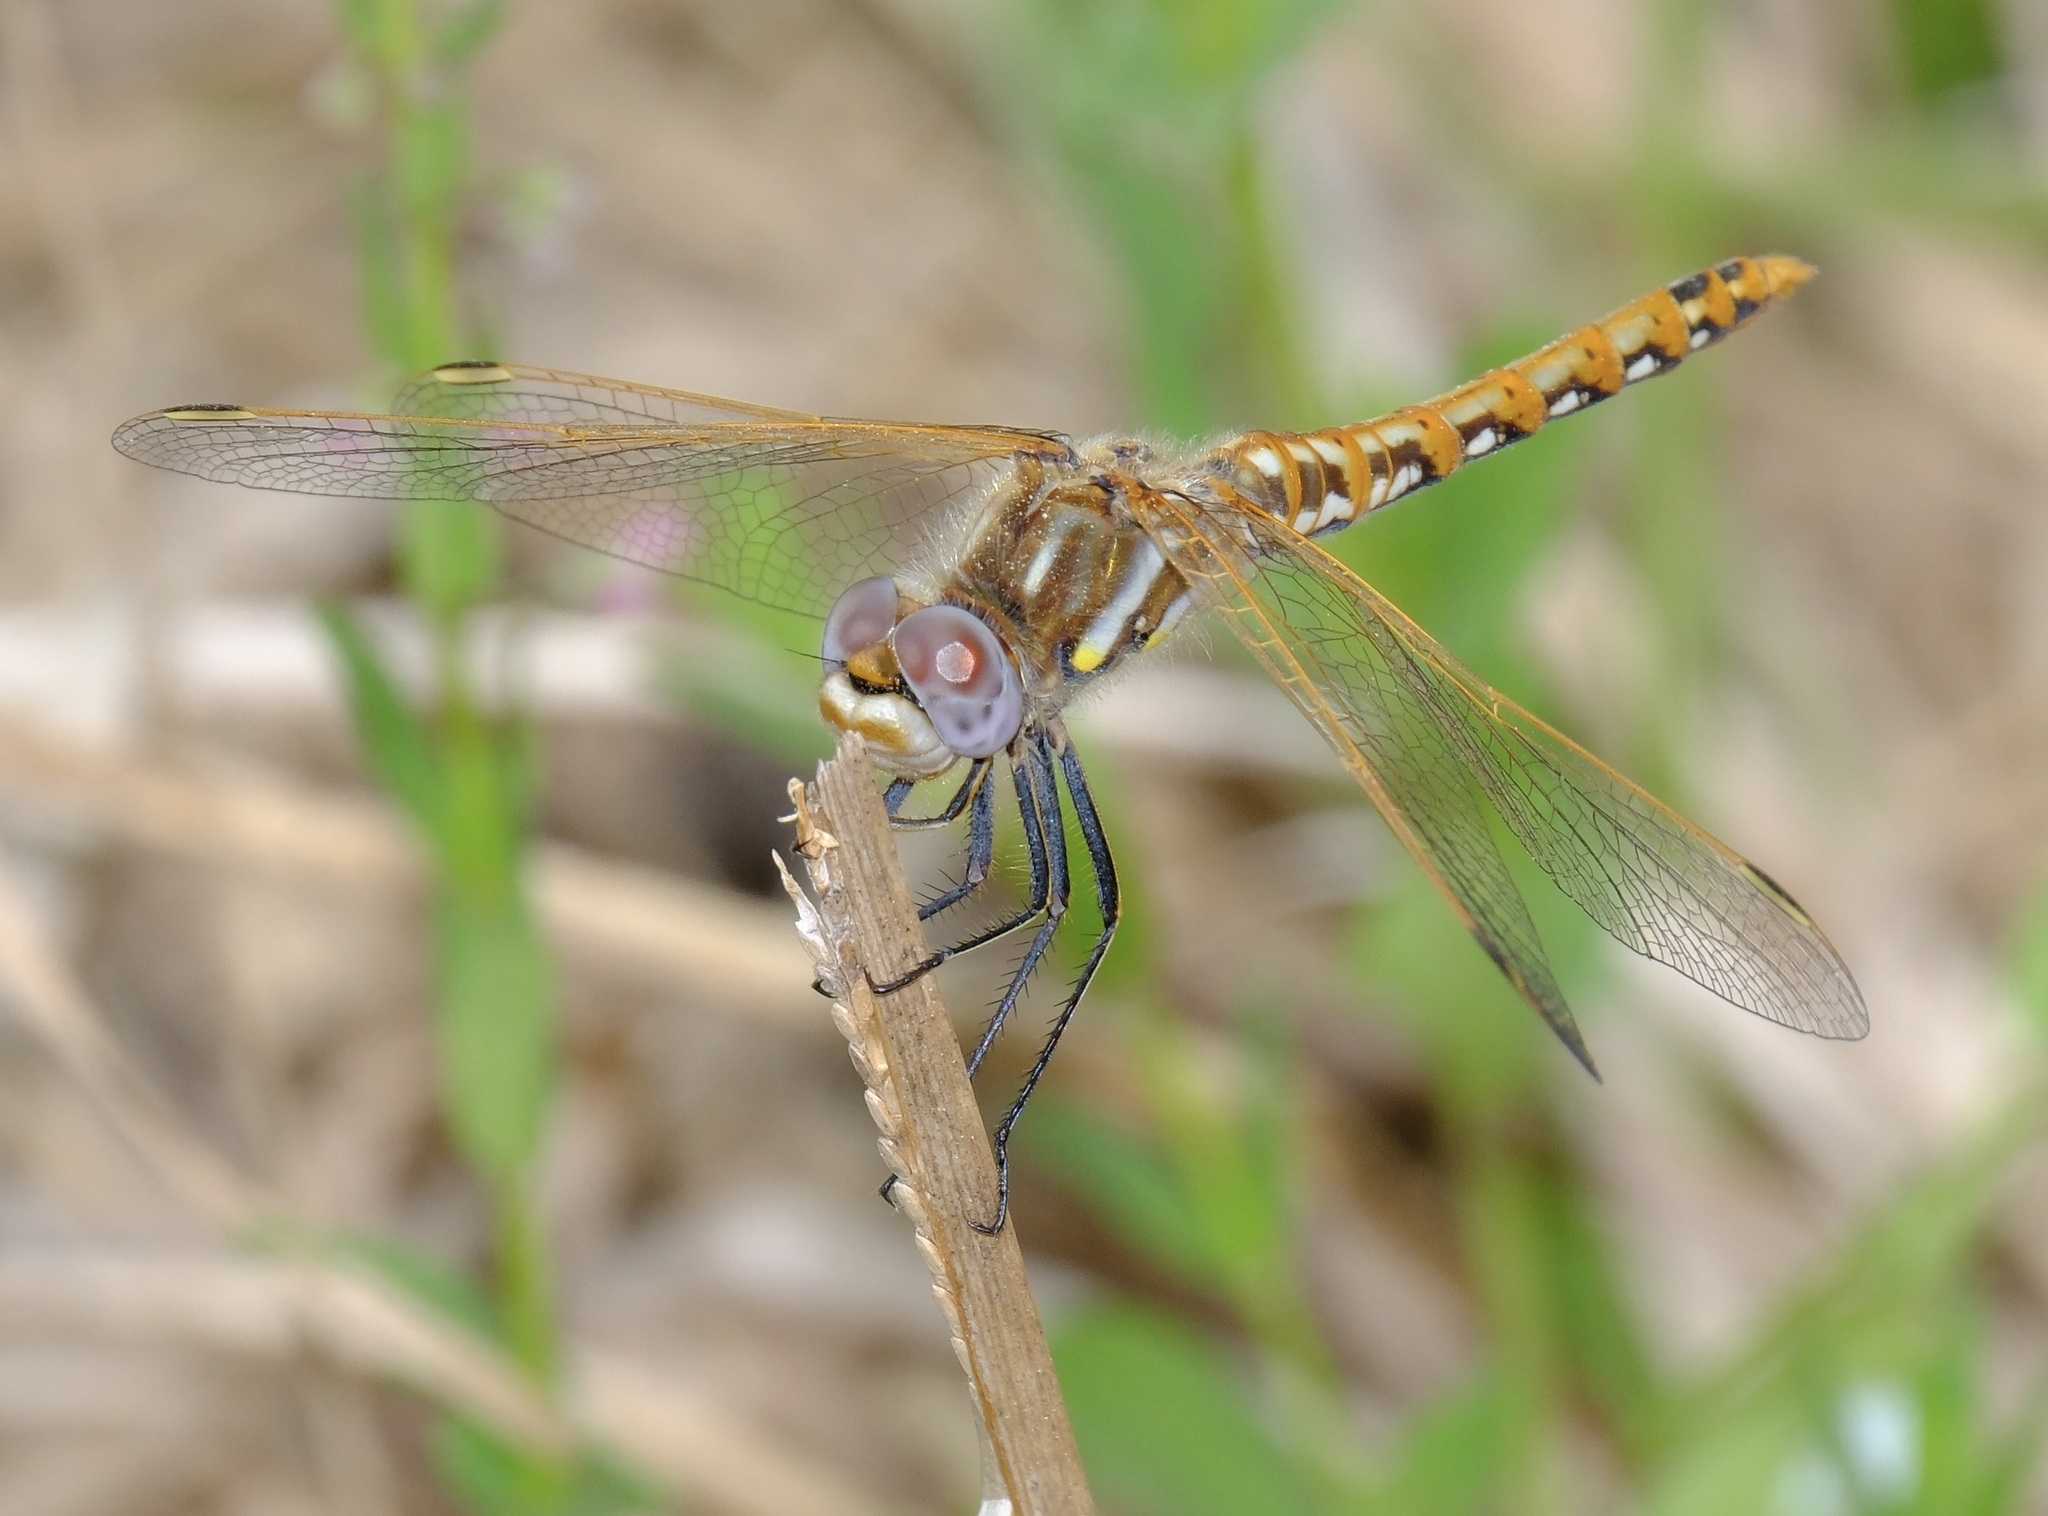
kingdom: Animalia
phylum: Arthropoda
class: Insecta
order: Odonata
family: Libellulidae
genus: Sympetrum
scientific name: Sympetrum corruptum
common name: Variegated meadowhawk
